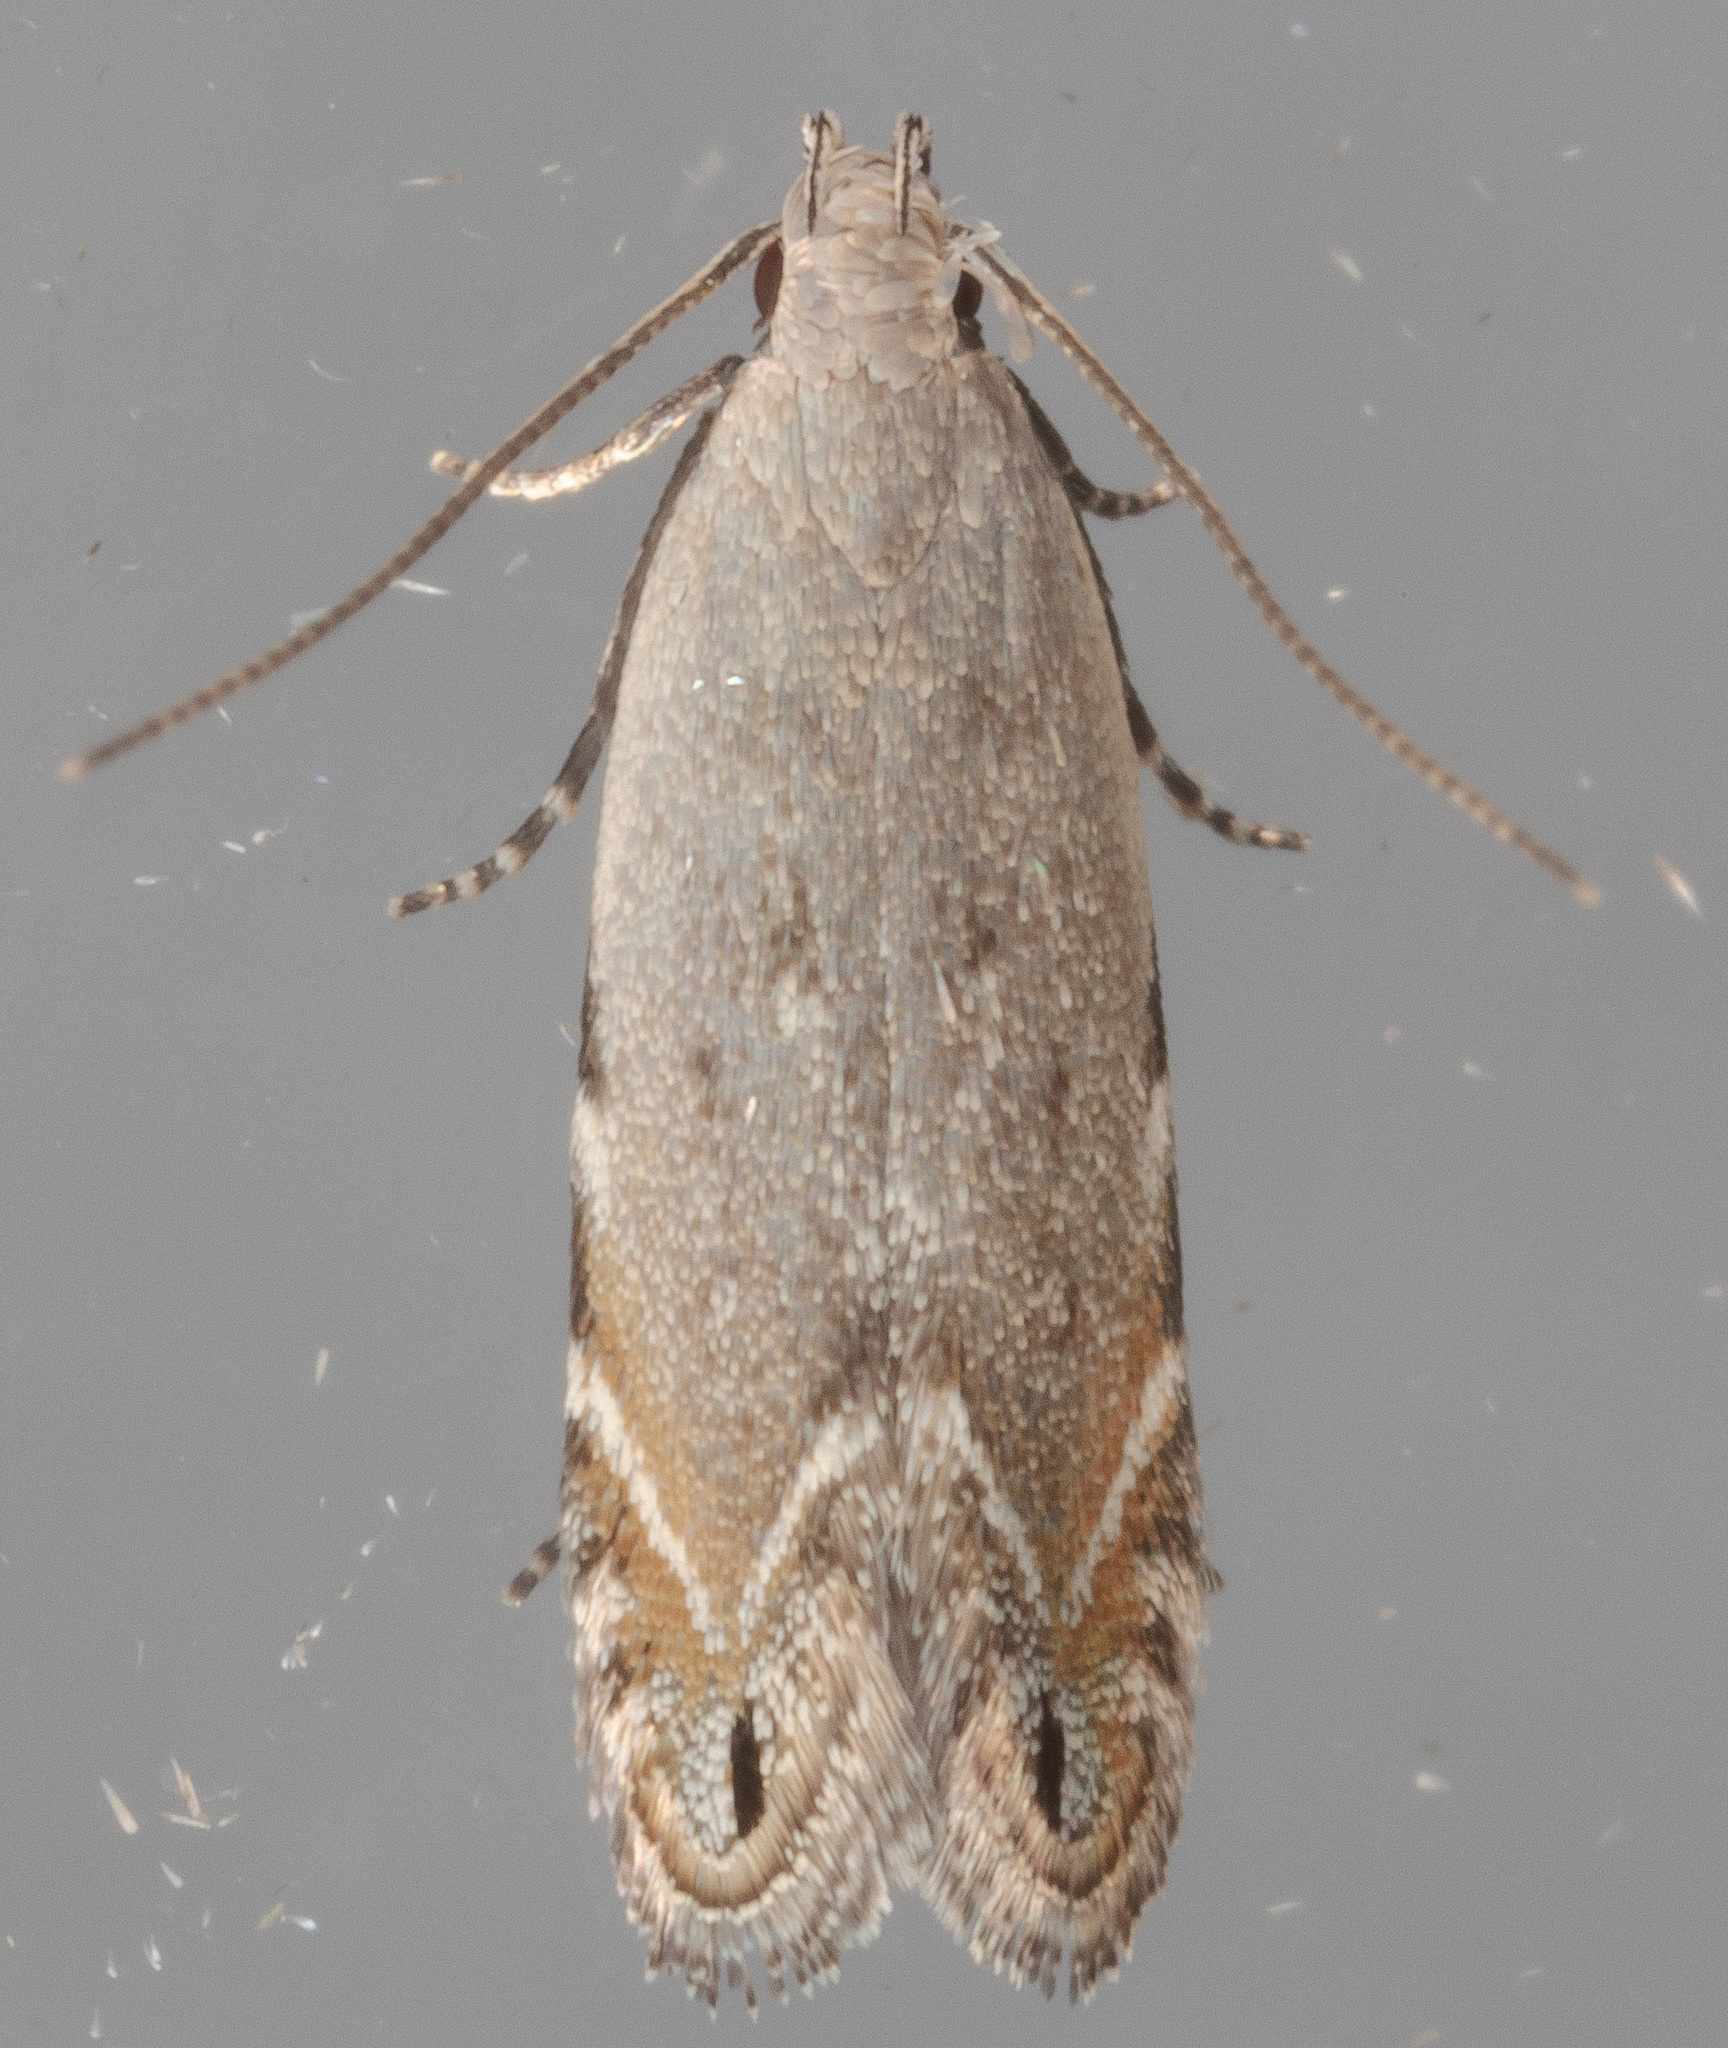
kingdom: Animalia
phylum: Arthropoda
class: Insecta
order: Lepidoptera
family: Gelechiidae
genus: Battaristis
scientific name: Battaristis concinnusella
